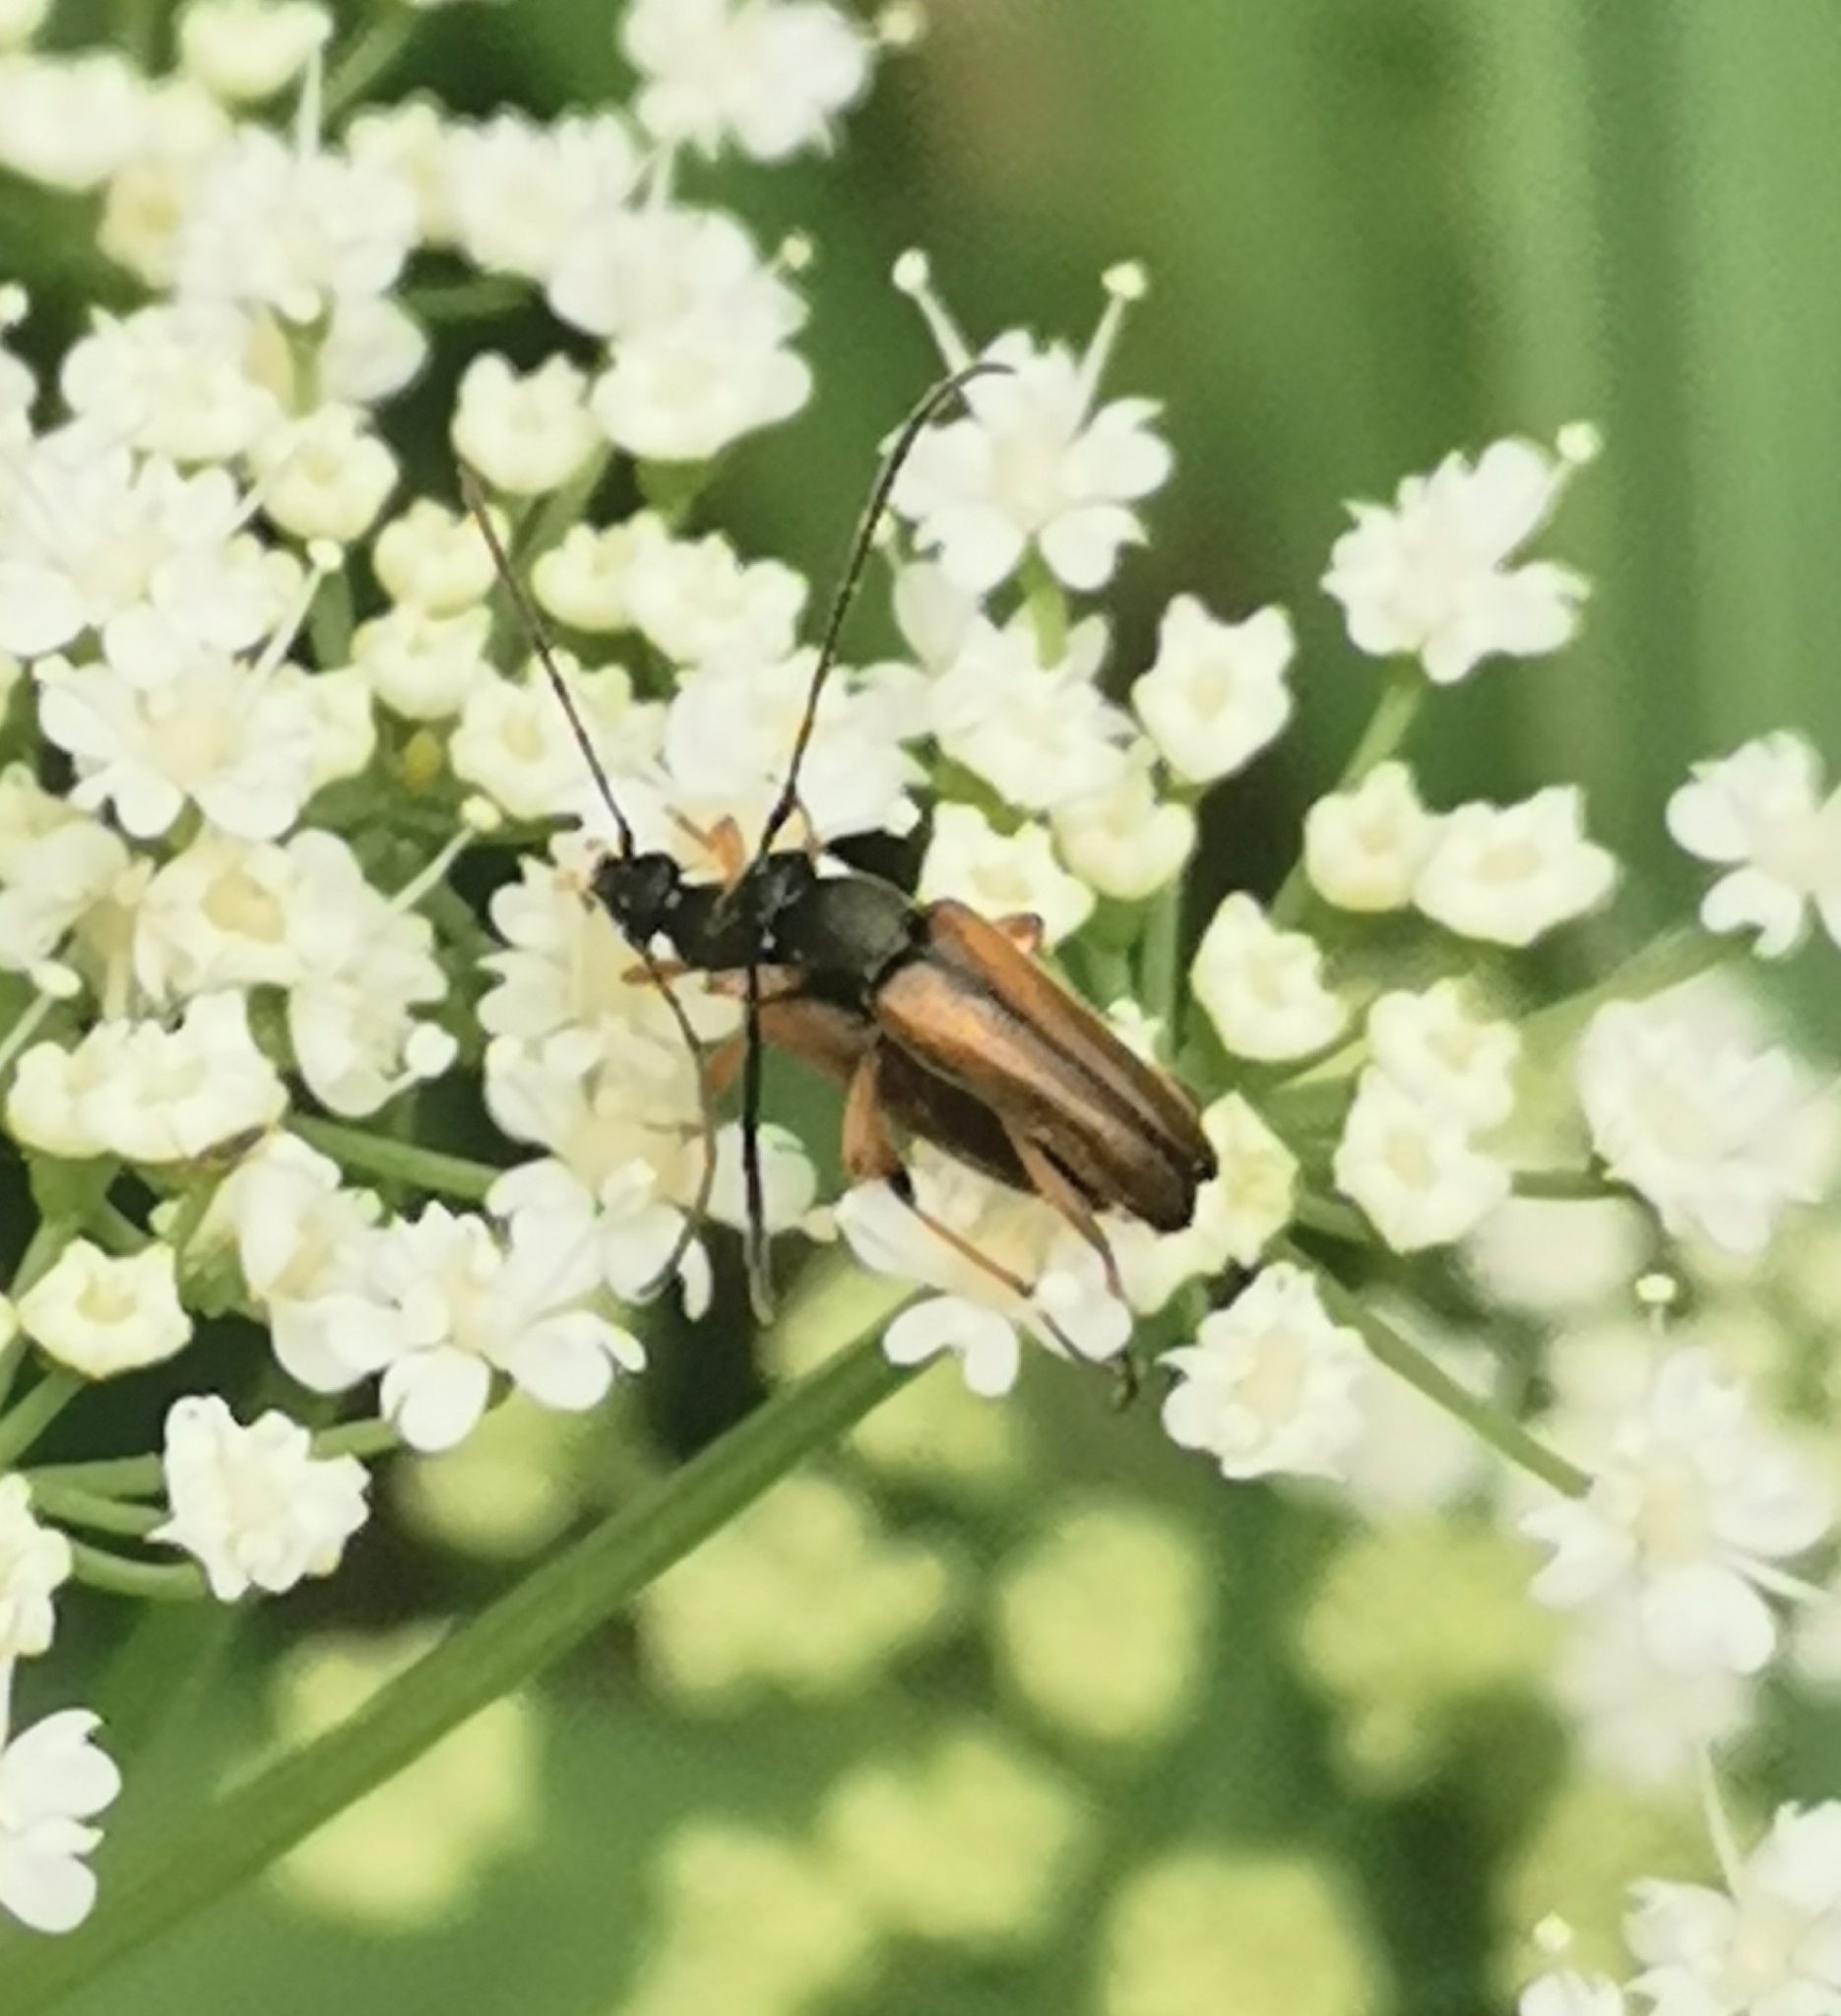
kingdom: Animalia
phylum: Arthropoda
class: Insecta
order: Coleoptera
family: Cerambycidae
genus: Alosterna
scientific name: Alosterna tabacicolor
